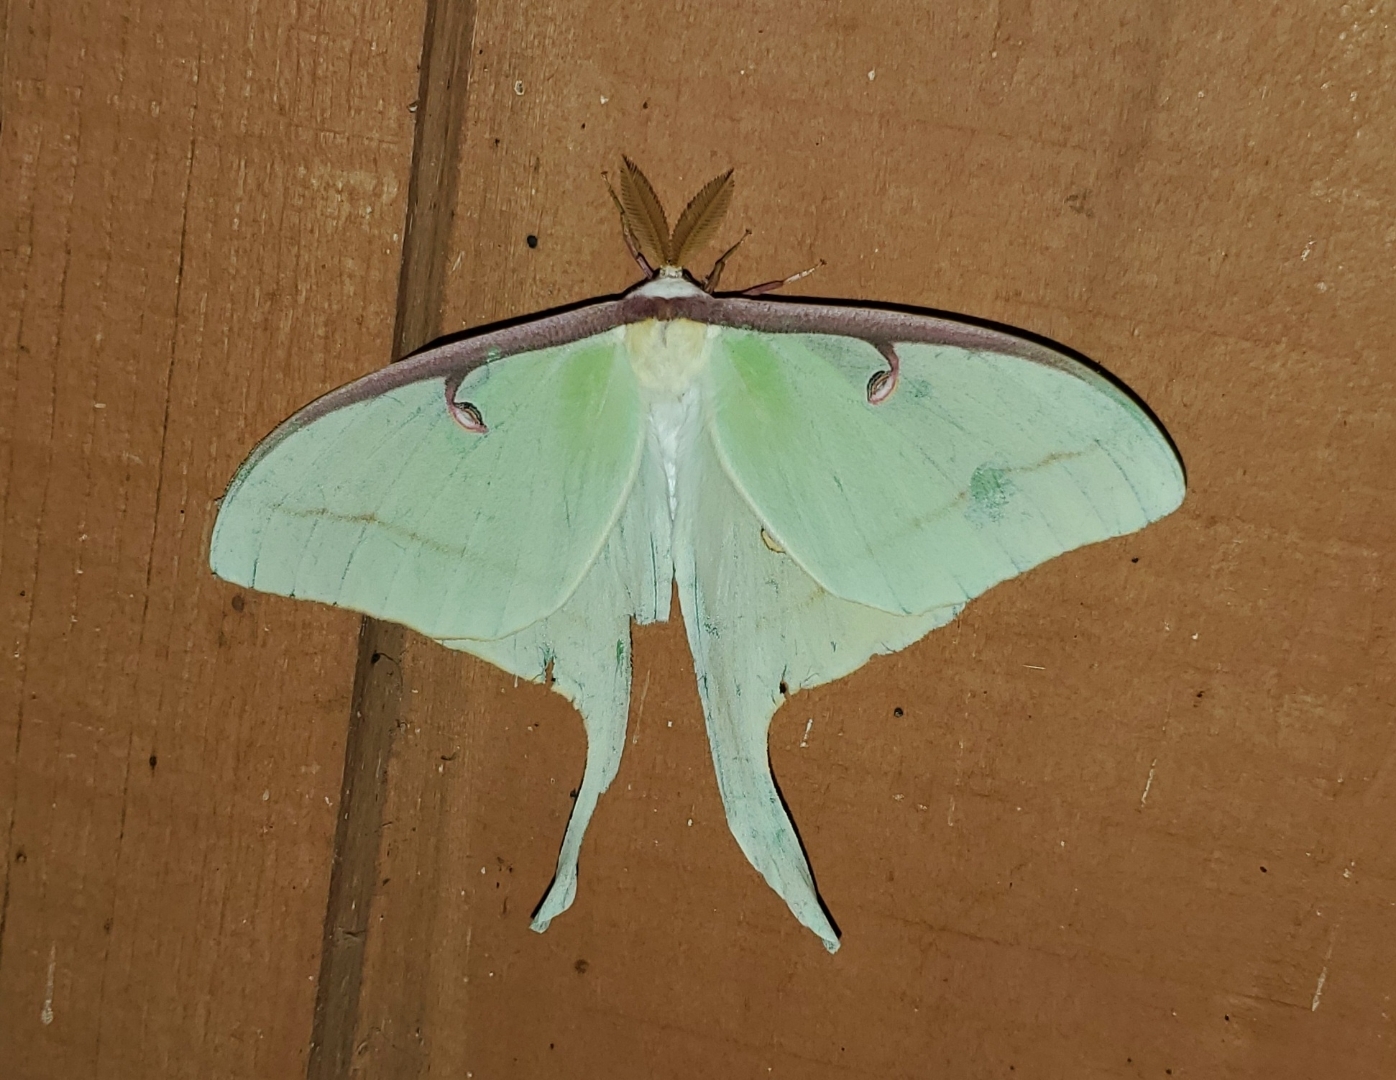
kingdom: Animalia
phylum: Arthropoda
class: Insecta
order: Lepidoptera
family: Saturniidae
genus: Actias
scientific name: Actias luna
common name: Luna moth
